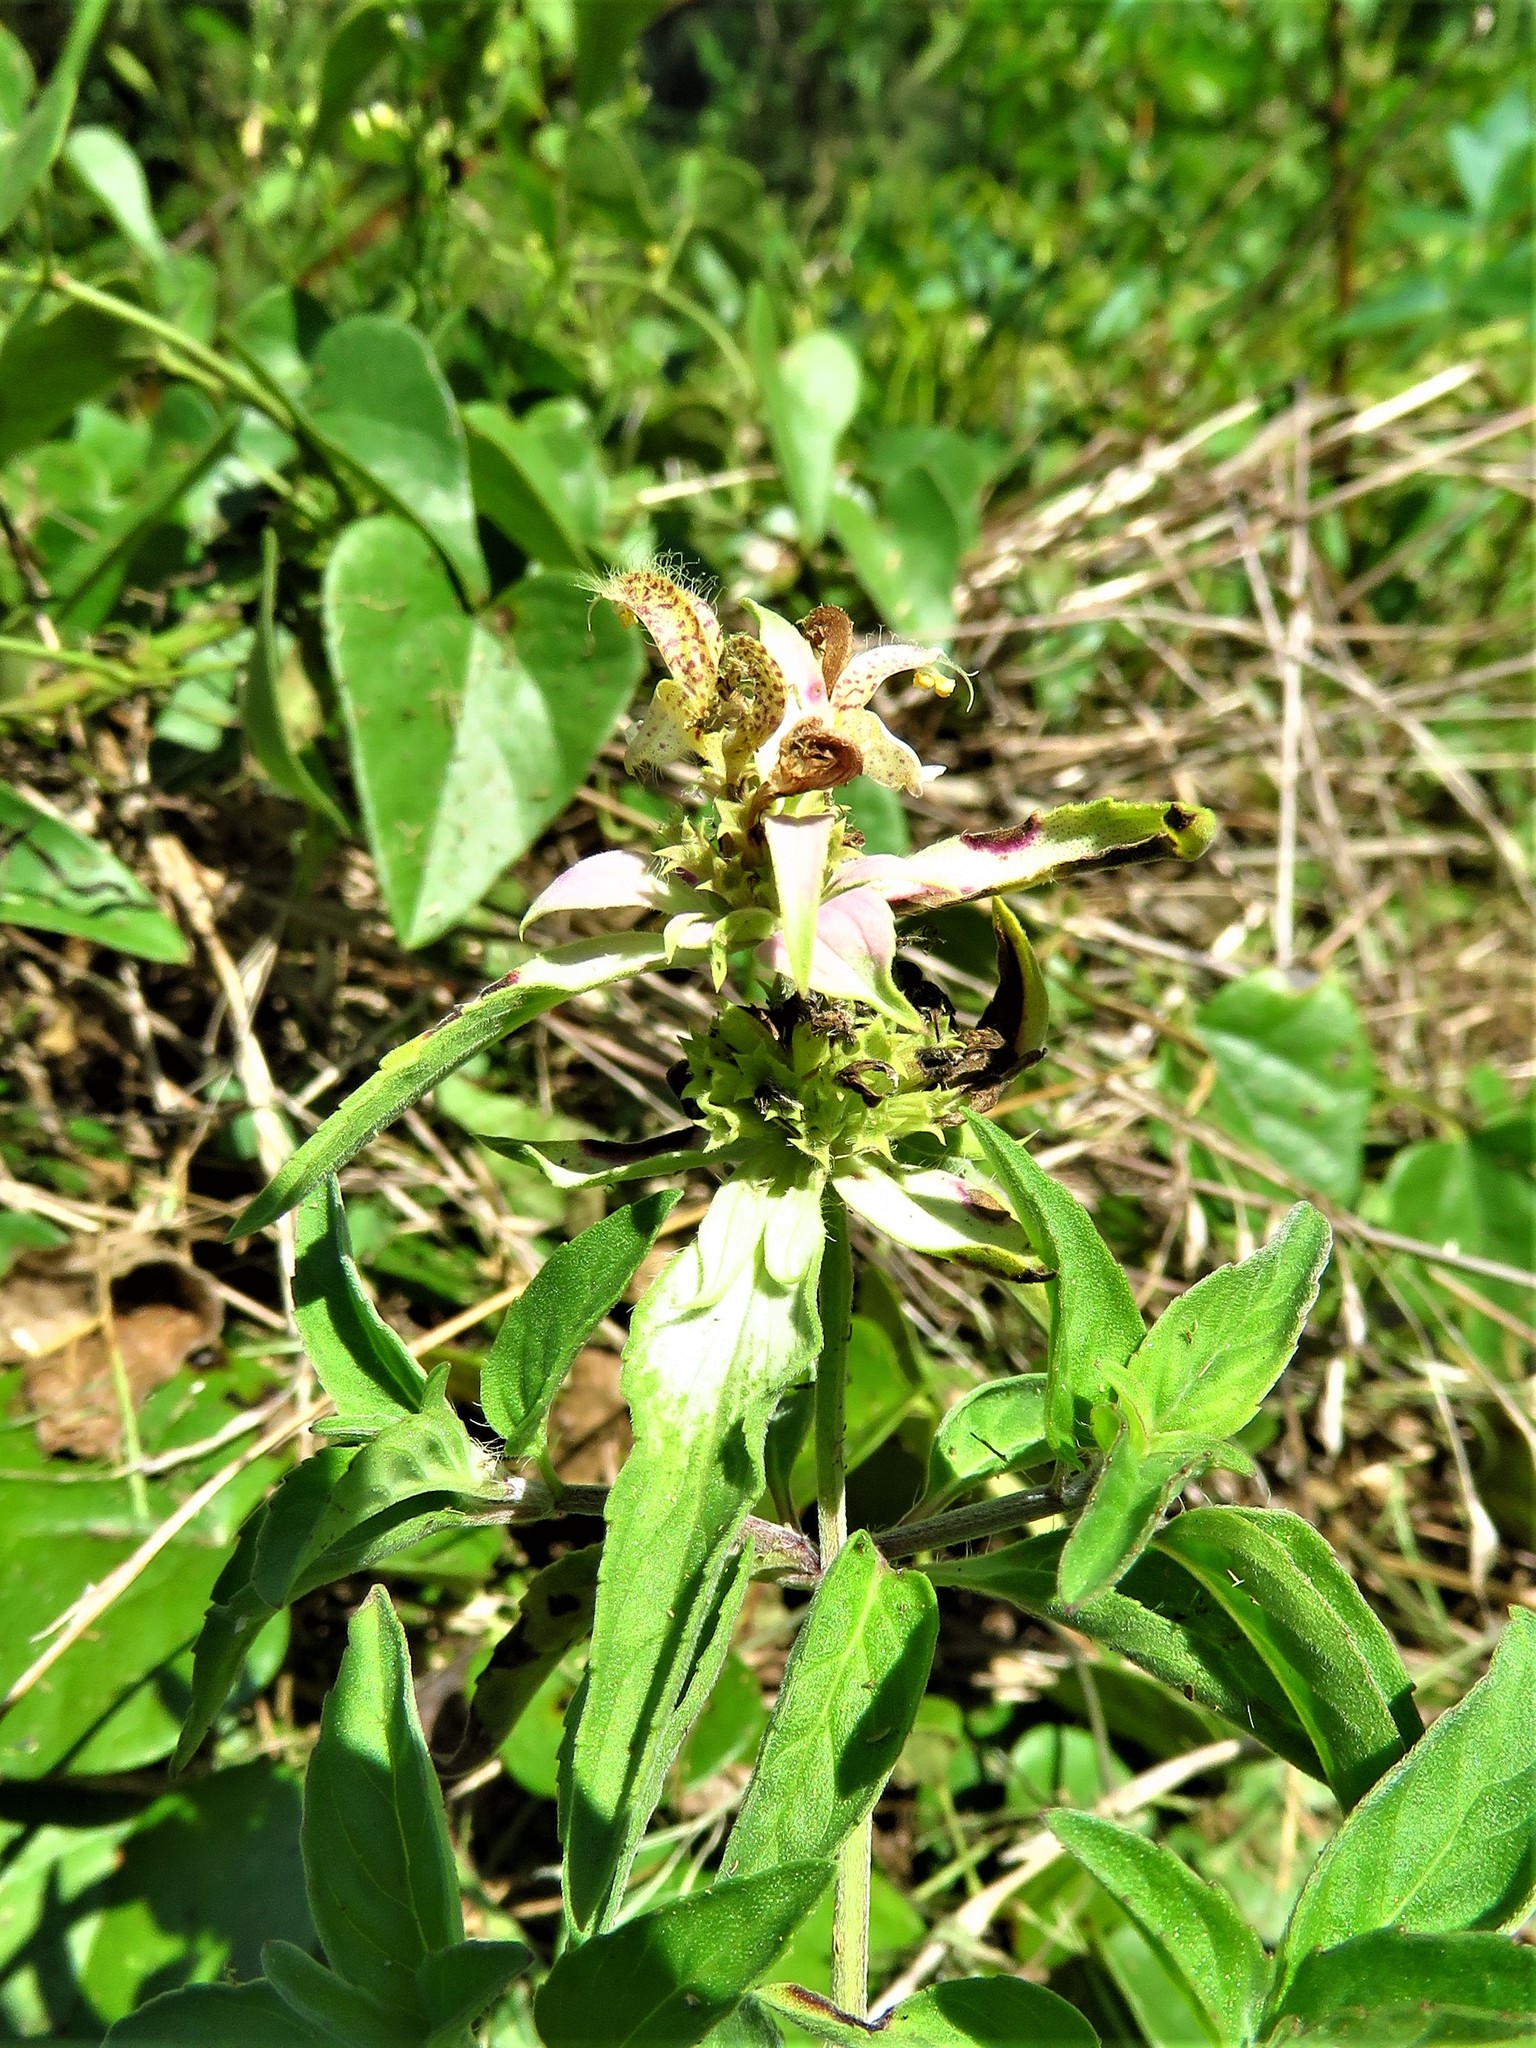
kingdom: Plantae
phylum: Tracheophyta
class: Magnoliopsida
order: Lamiales
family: Lamiaceae
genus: Monarda
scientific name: Monarda punctata
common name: Dotted monarda
